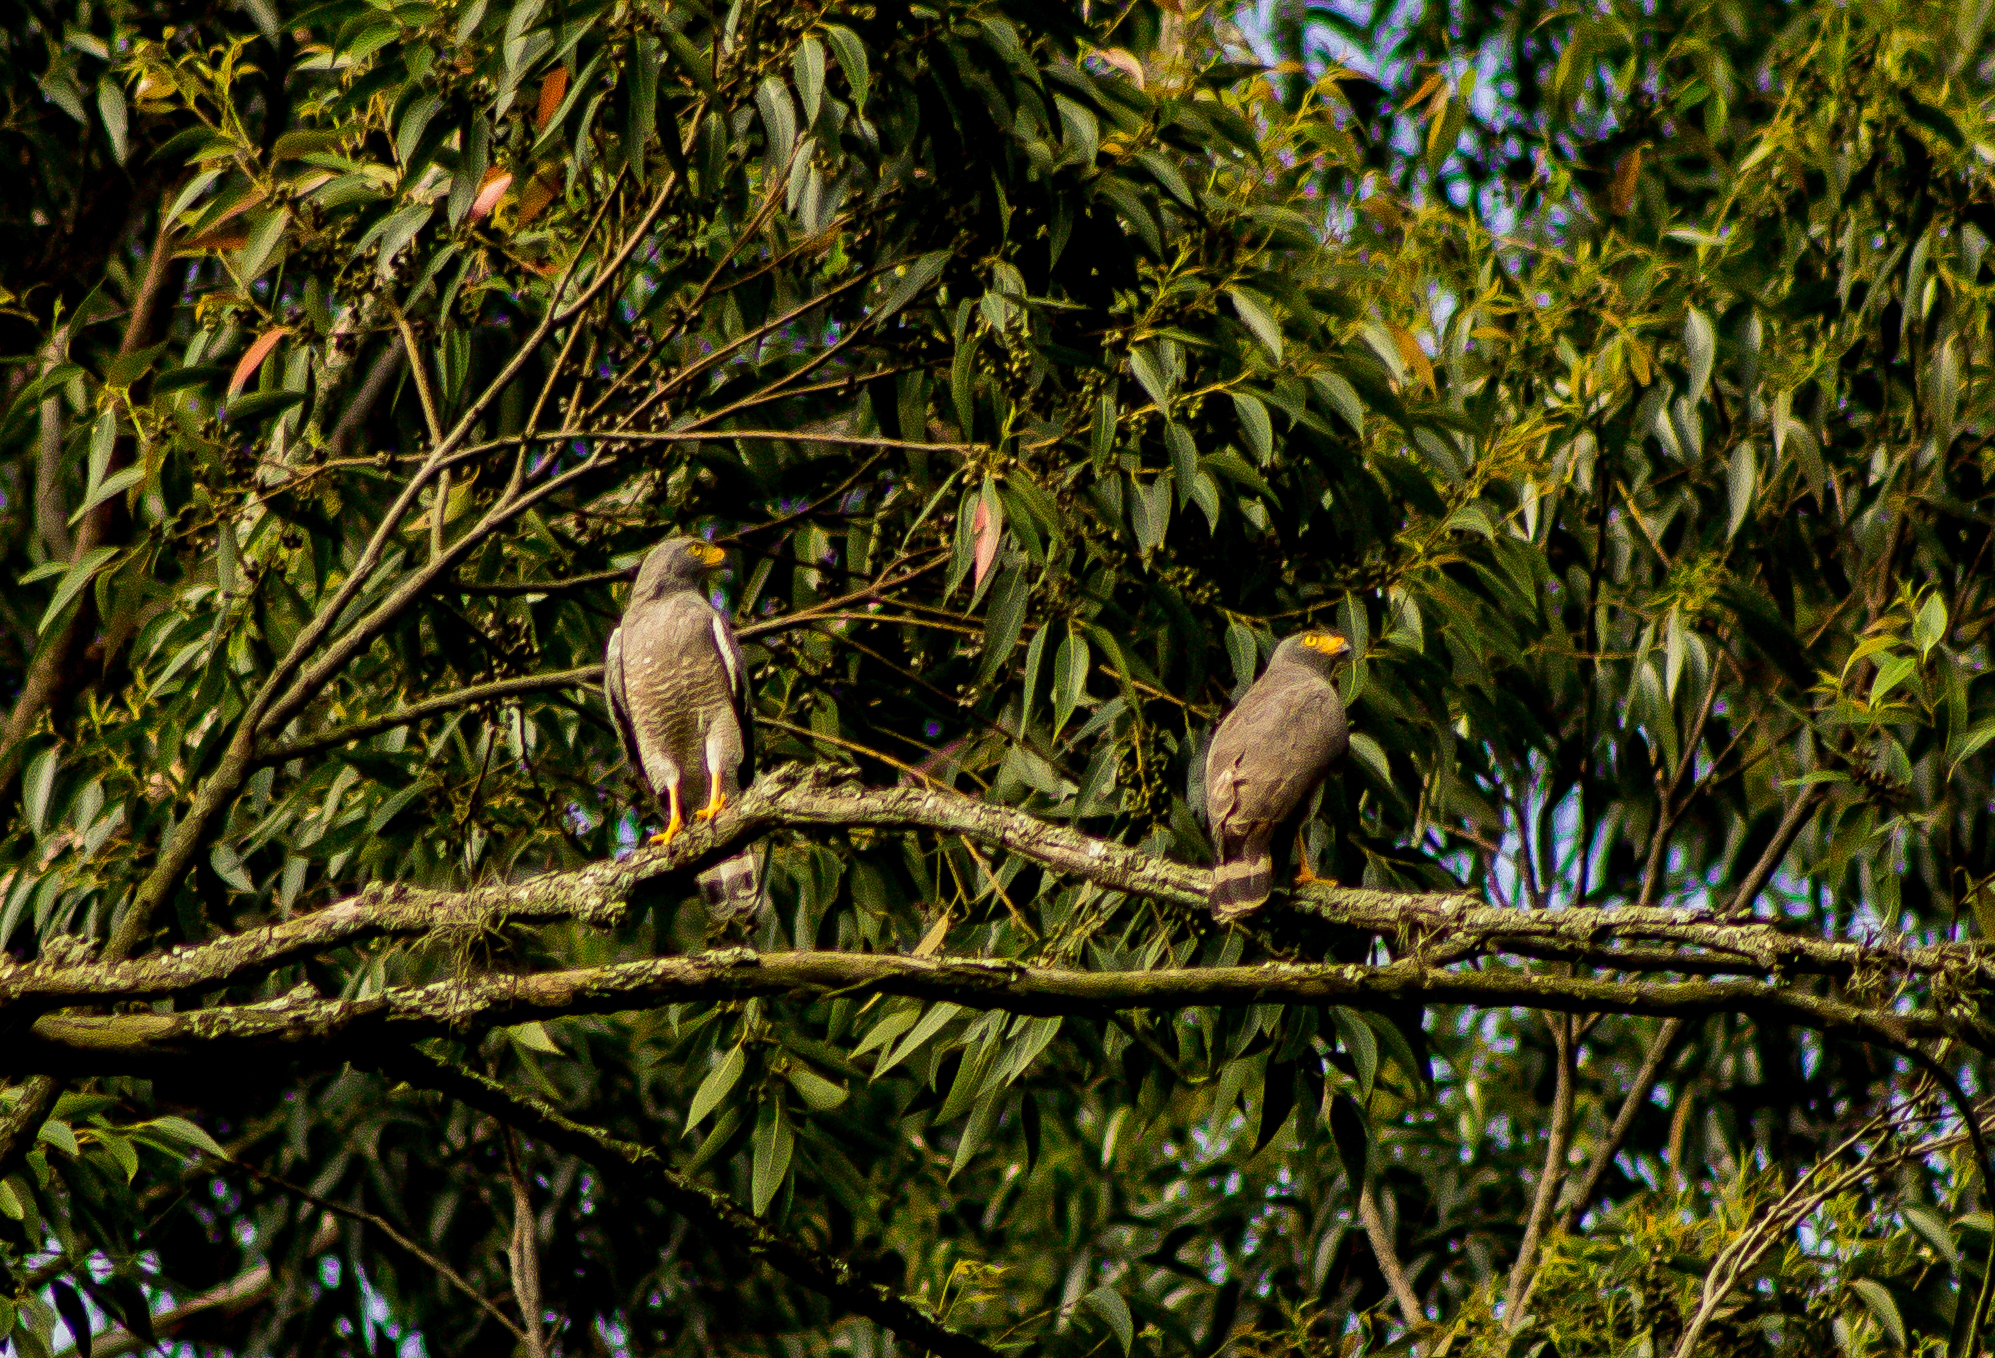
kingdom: Animalia
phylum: Chordata
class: Aves
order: Accipitriformes
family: Accipitridae
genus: Rupornis
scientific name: Rupornis magnirostris
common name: Roadside hawk
